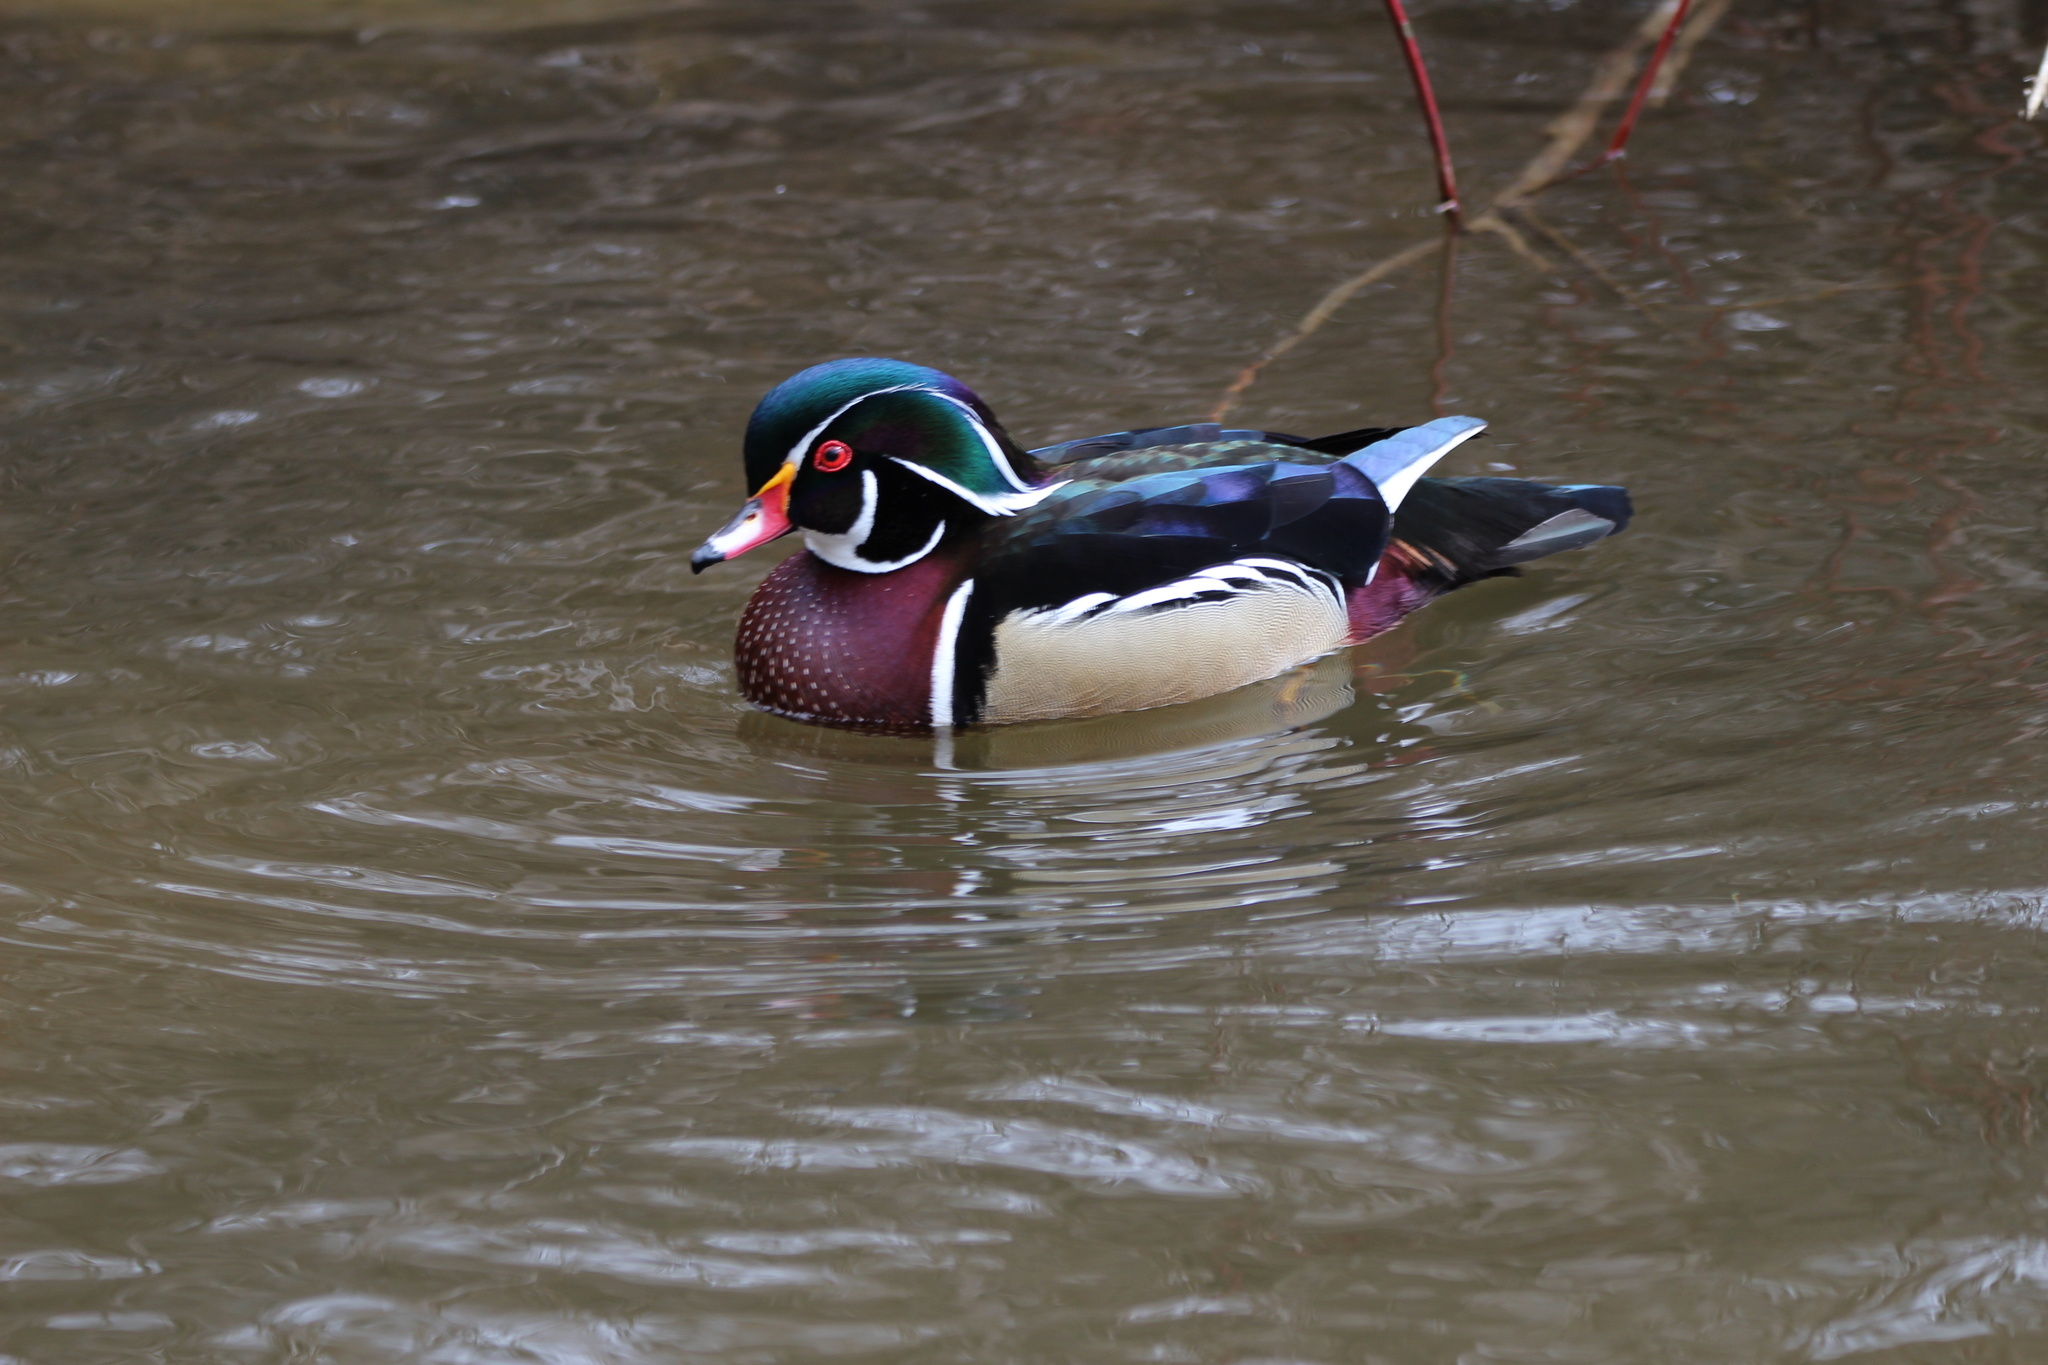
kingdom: Animalia
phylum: Chordata
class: Aves
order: Anseriformes
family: Anatidae
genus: Aix
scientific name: Aix sponsa
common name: Wood duck
